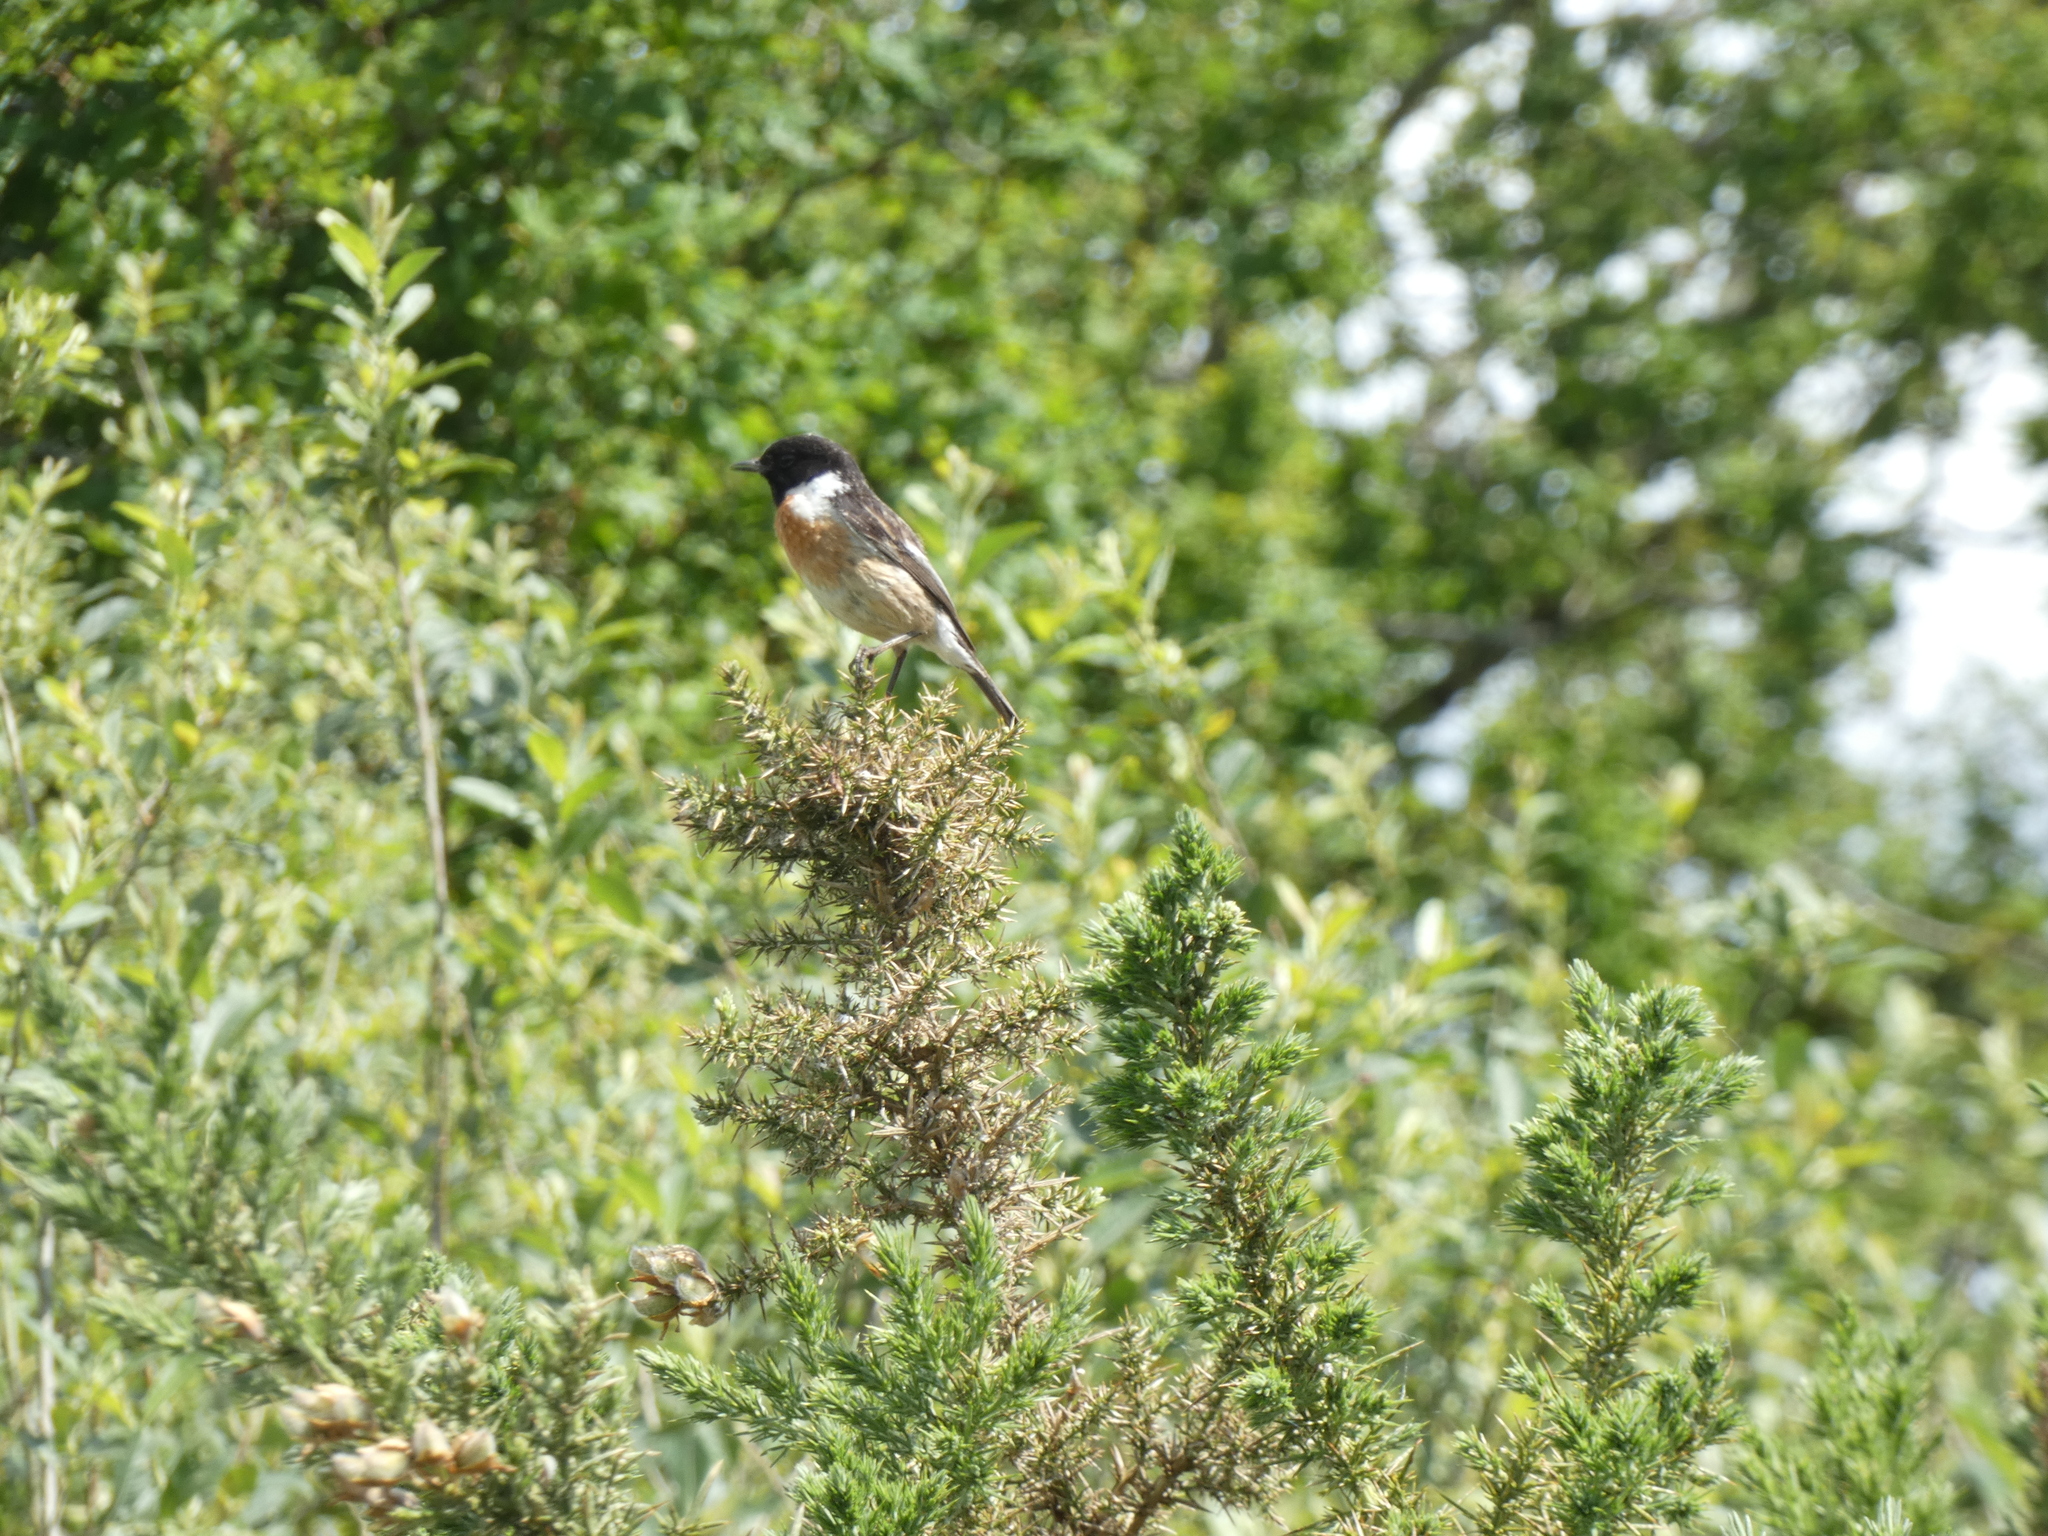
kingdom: Animalia
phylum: Chordata
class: Aves
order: Passeriformes
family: Muscicapidae
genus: Saxicola
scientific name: Saxicola rubicola
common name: European stonechat
